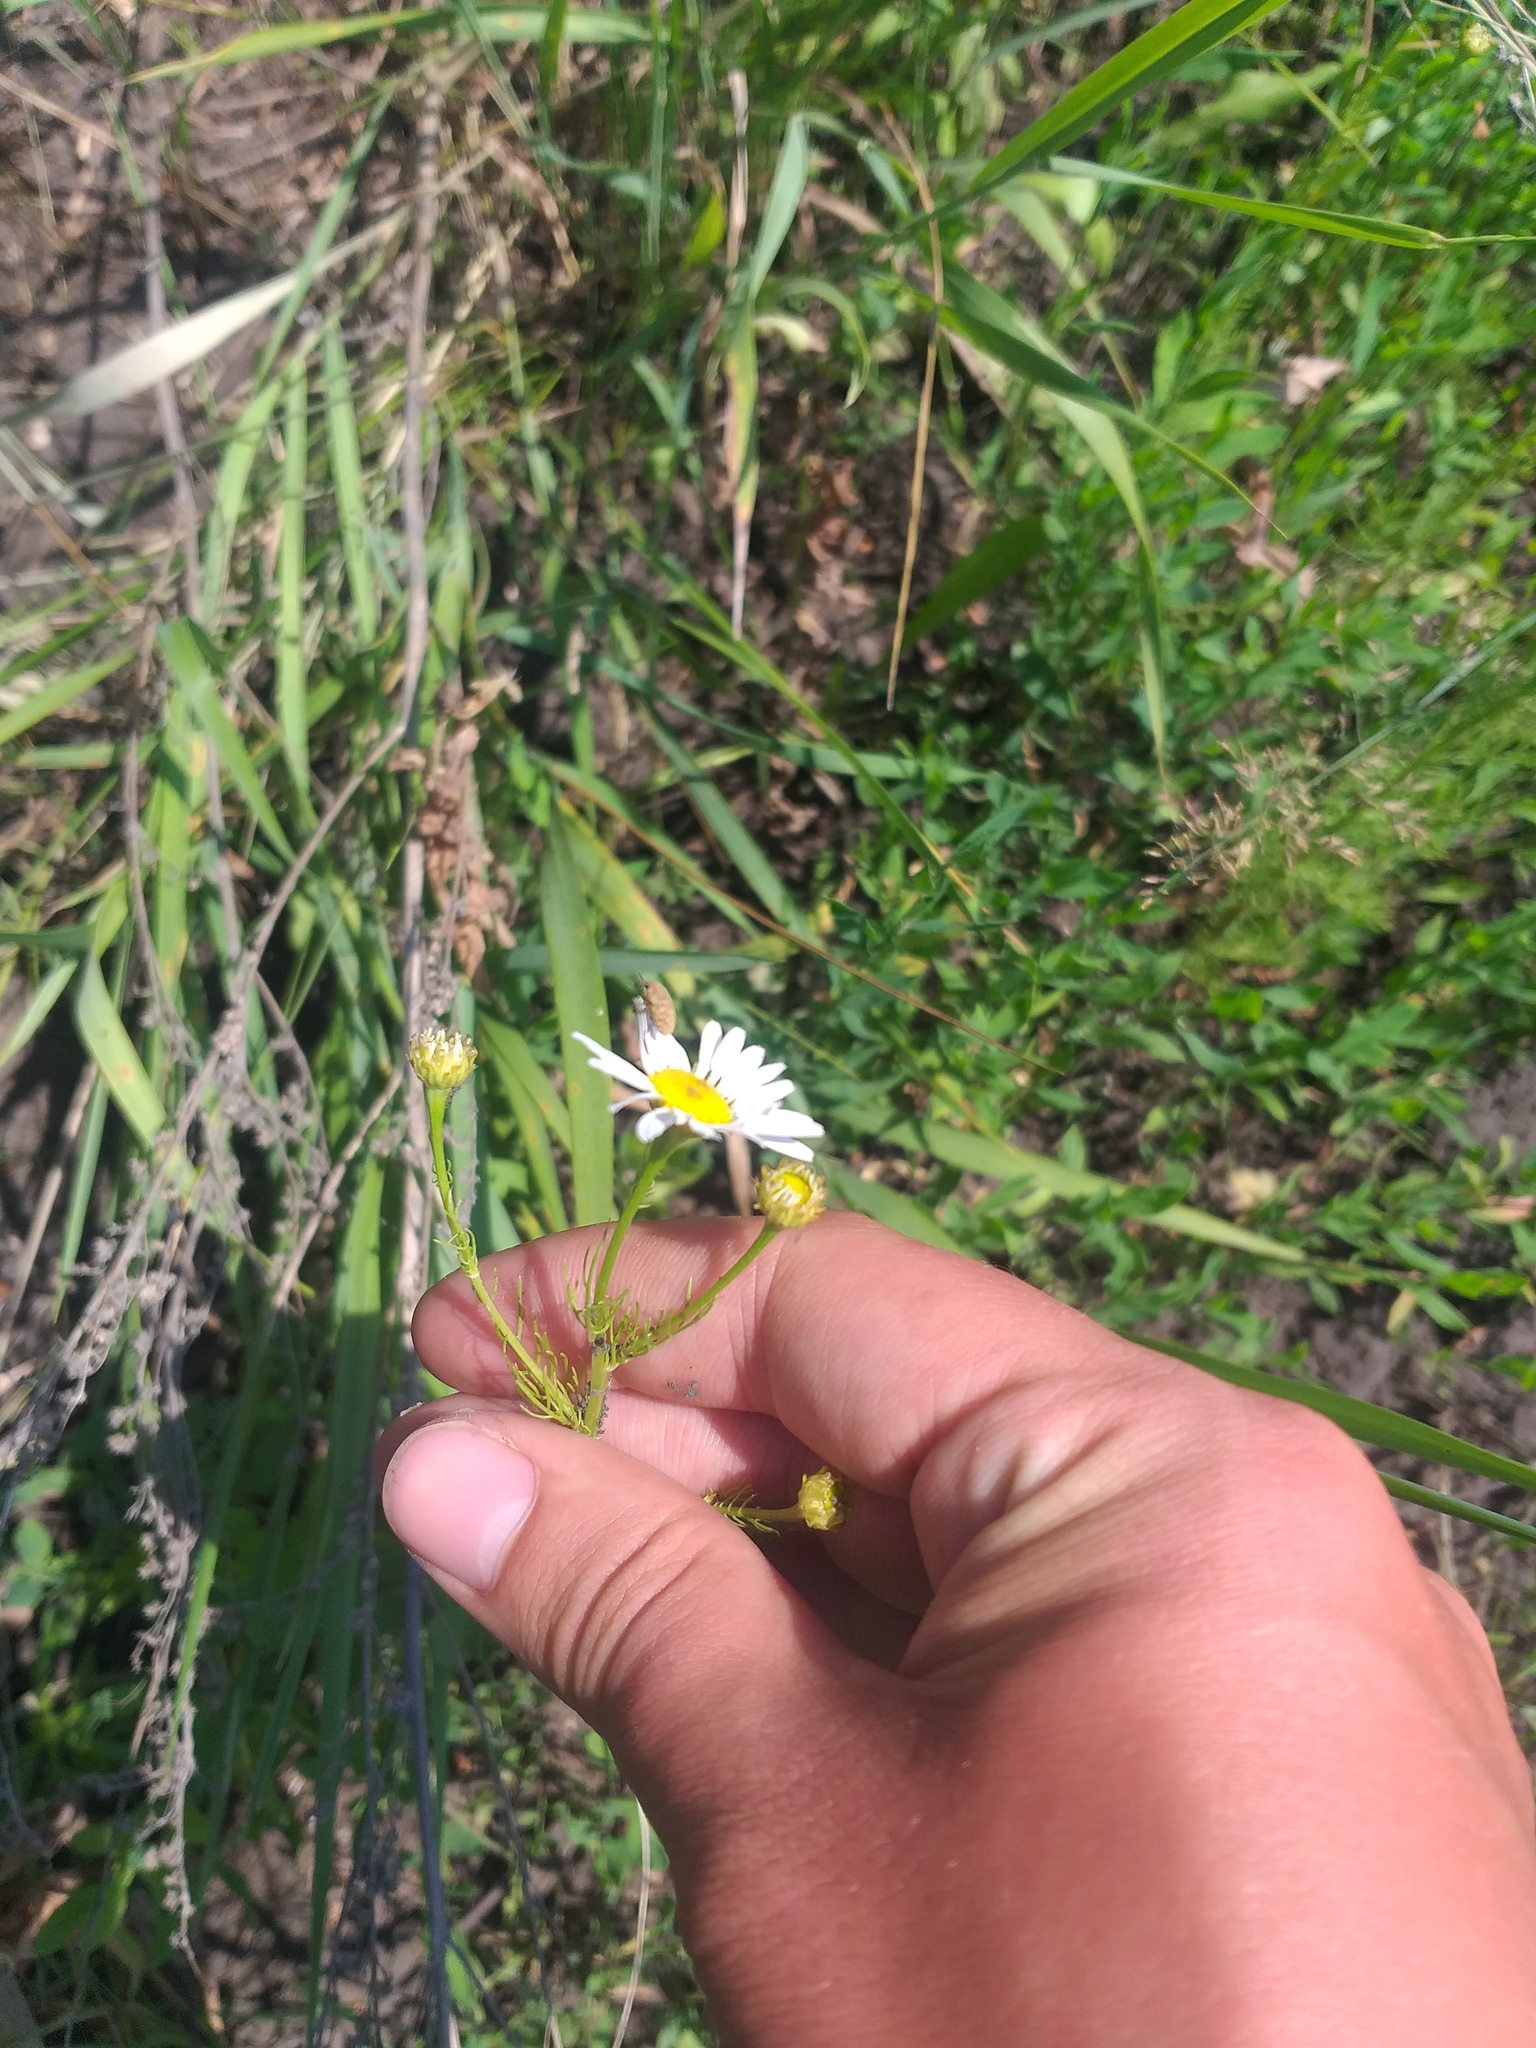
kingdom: Plantae
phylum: Tracheophyta
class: Magnoliopsida
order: Asterales
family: Asteraceae
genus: Tripleurospermum
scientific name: Tripleurospermum inodorum
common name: Scentless mayweed
